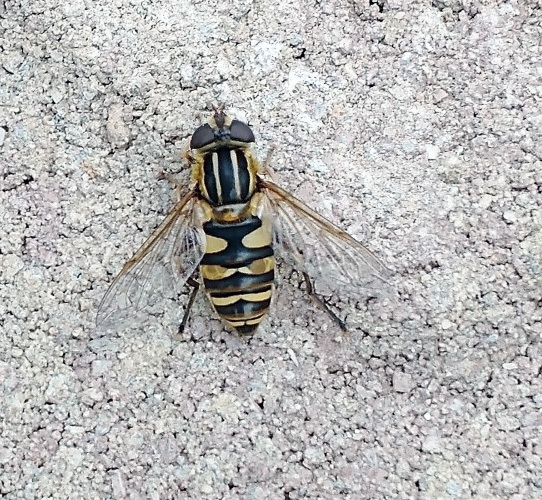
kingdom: Animalia
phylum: Arthropoda
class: Insecta
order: Diptera
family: Syrphidae
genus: Helophilus
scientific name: Helophilus fasciatus
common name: Narrow-headed marsh fly
